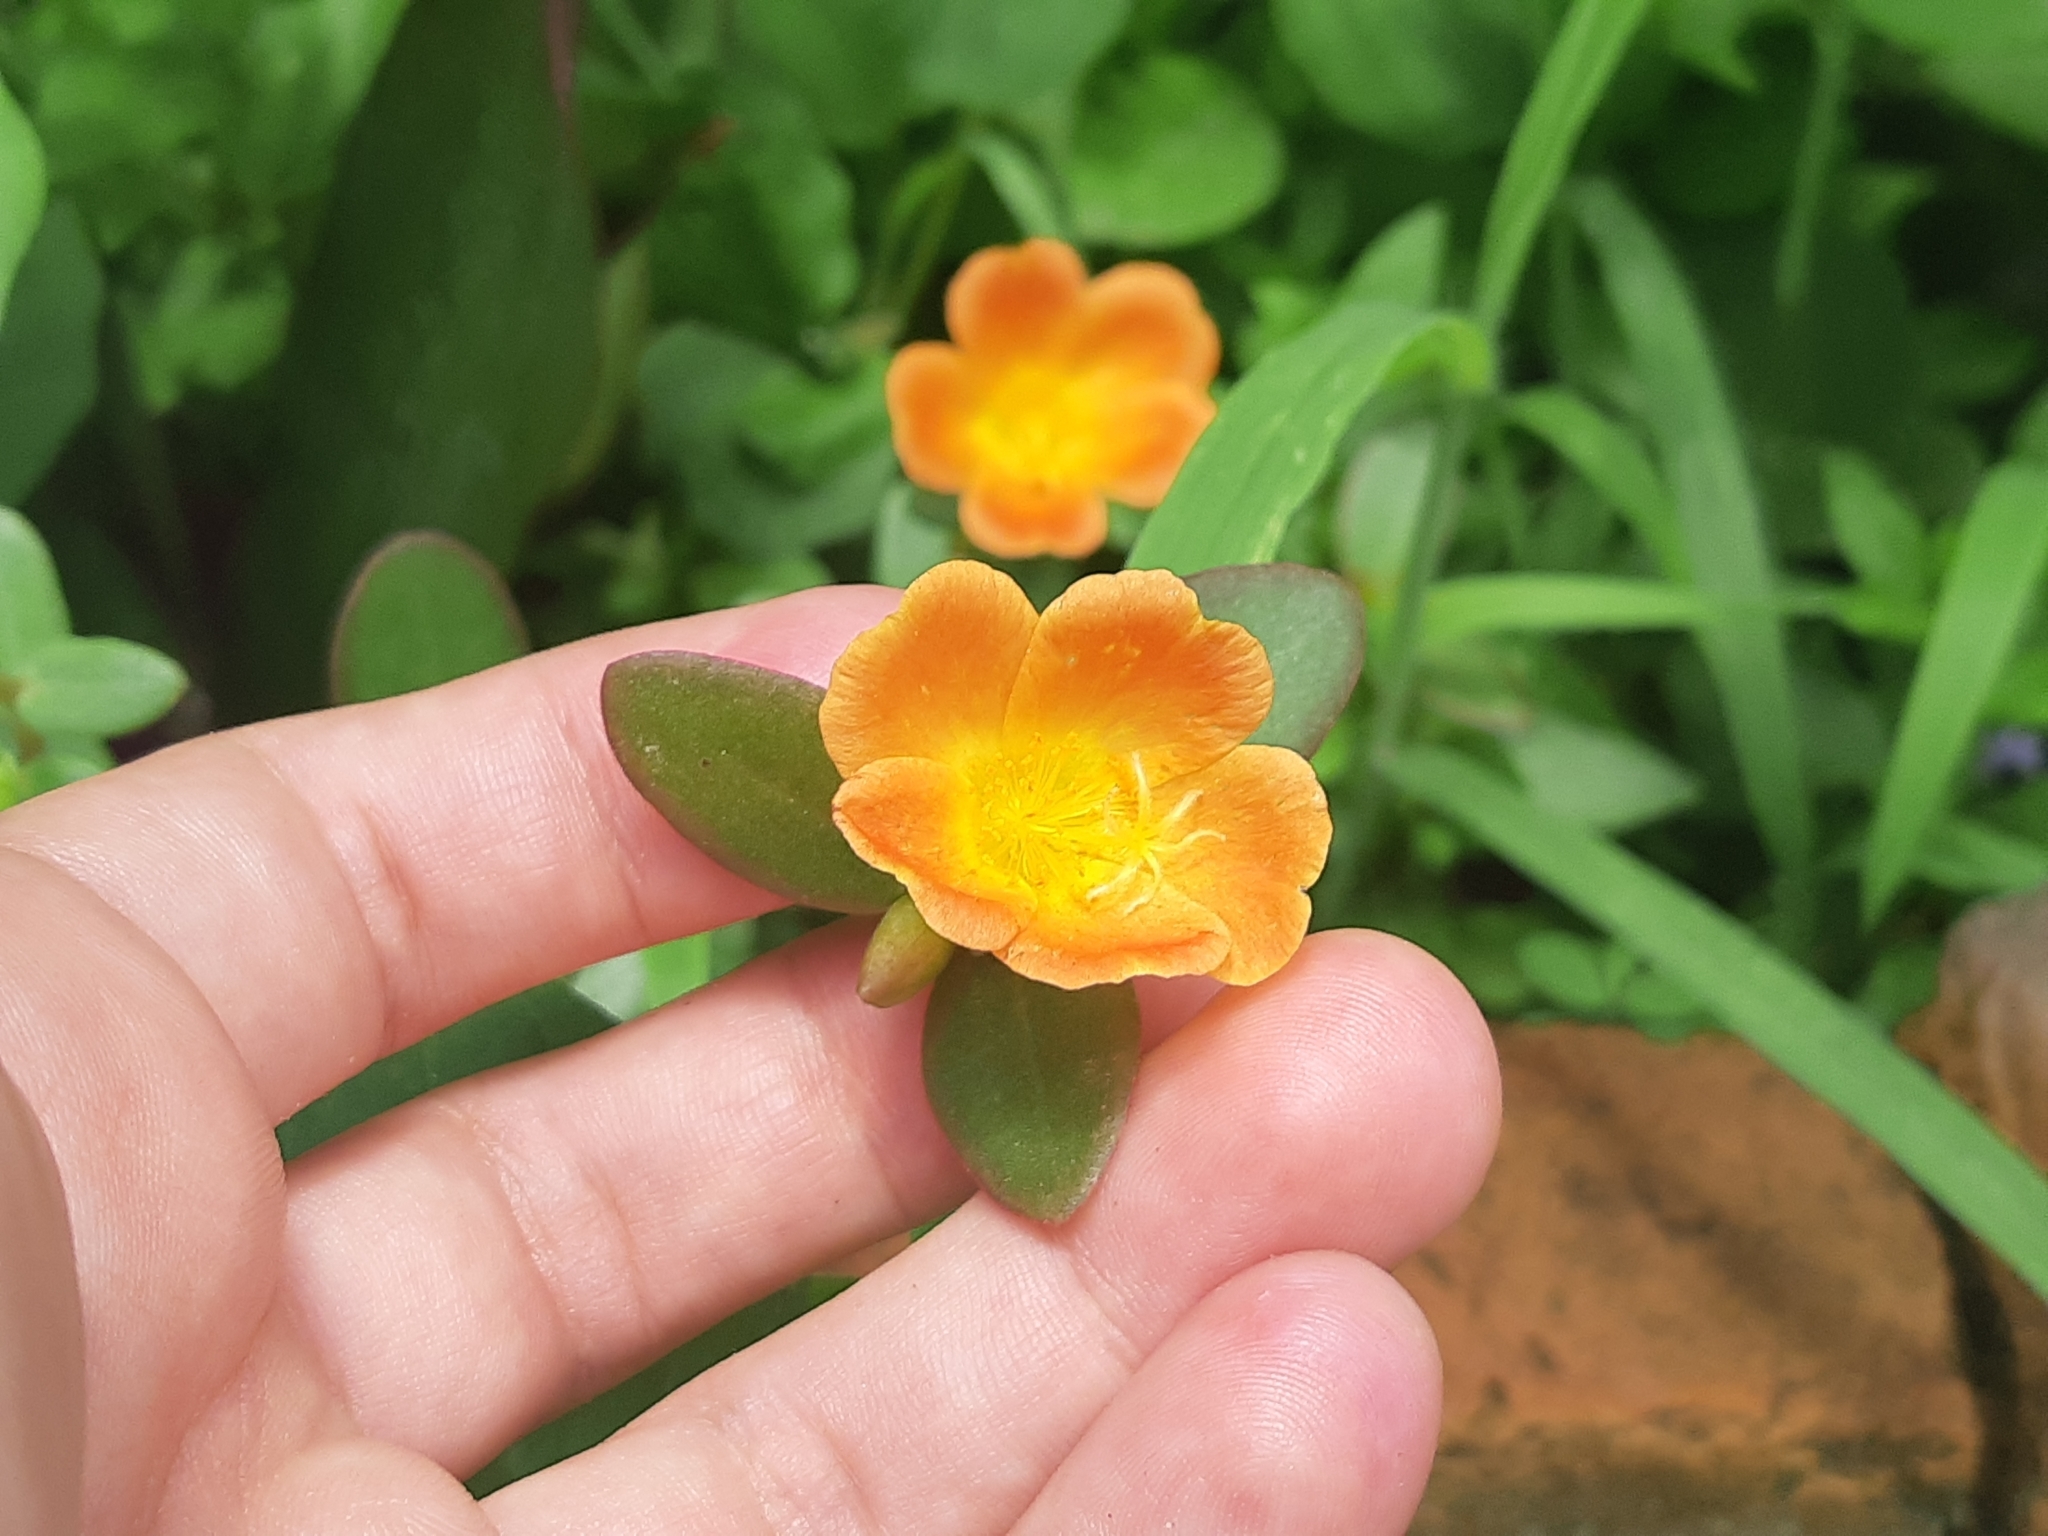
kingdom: Plantae
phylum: Tracheophyta
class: Magnoliopsida
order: Caryophyllales
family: Portulacaceae
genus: Portulaca
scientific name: Portulaca umbraticola
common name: Wingpod purslane
